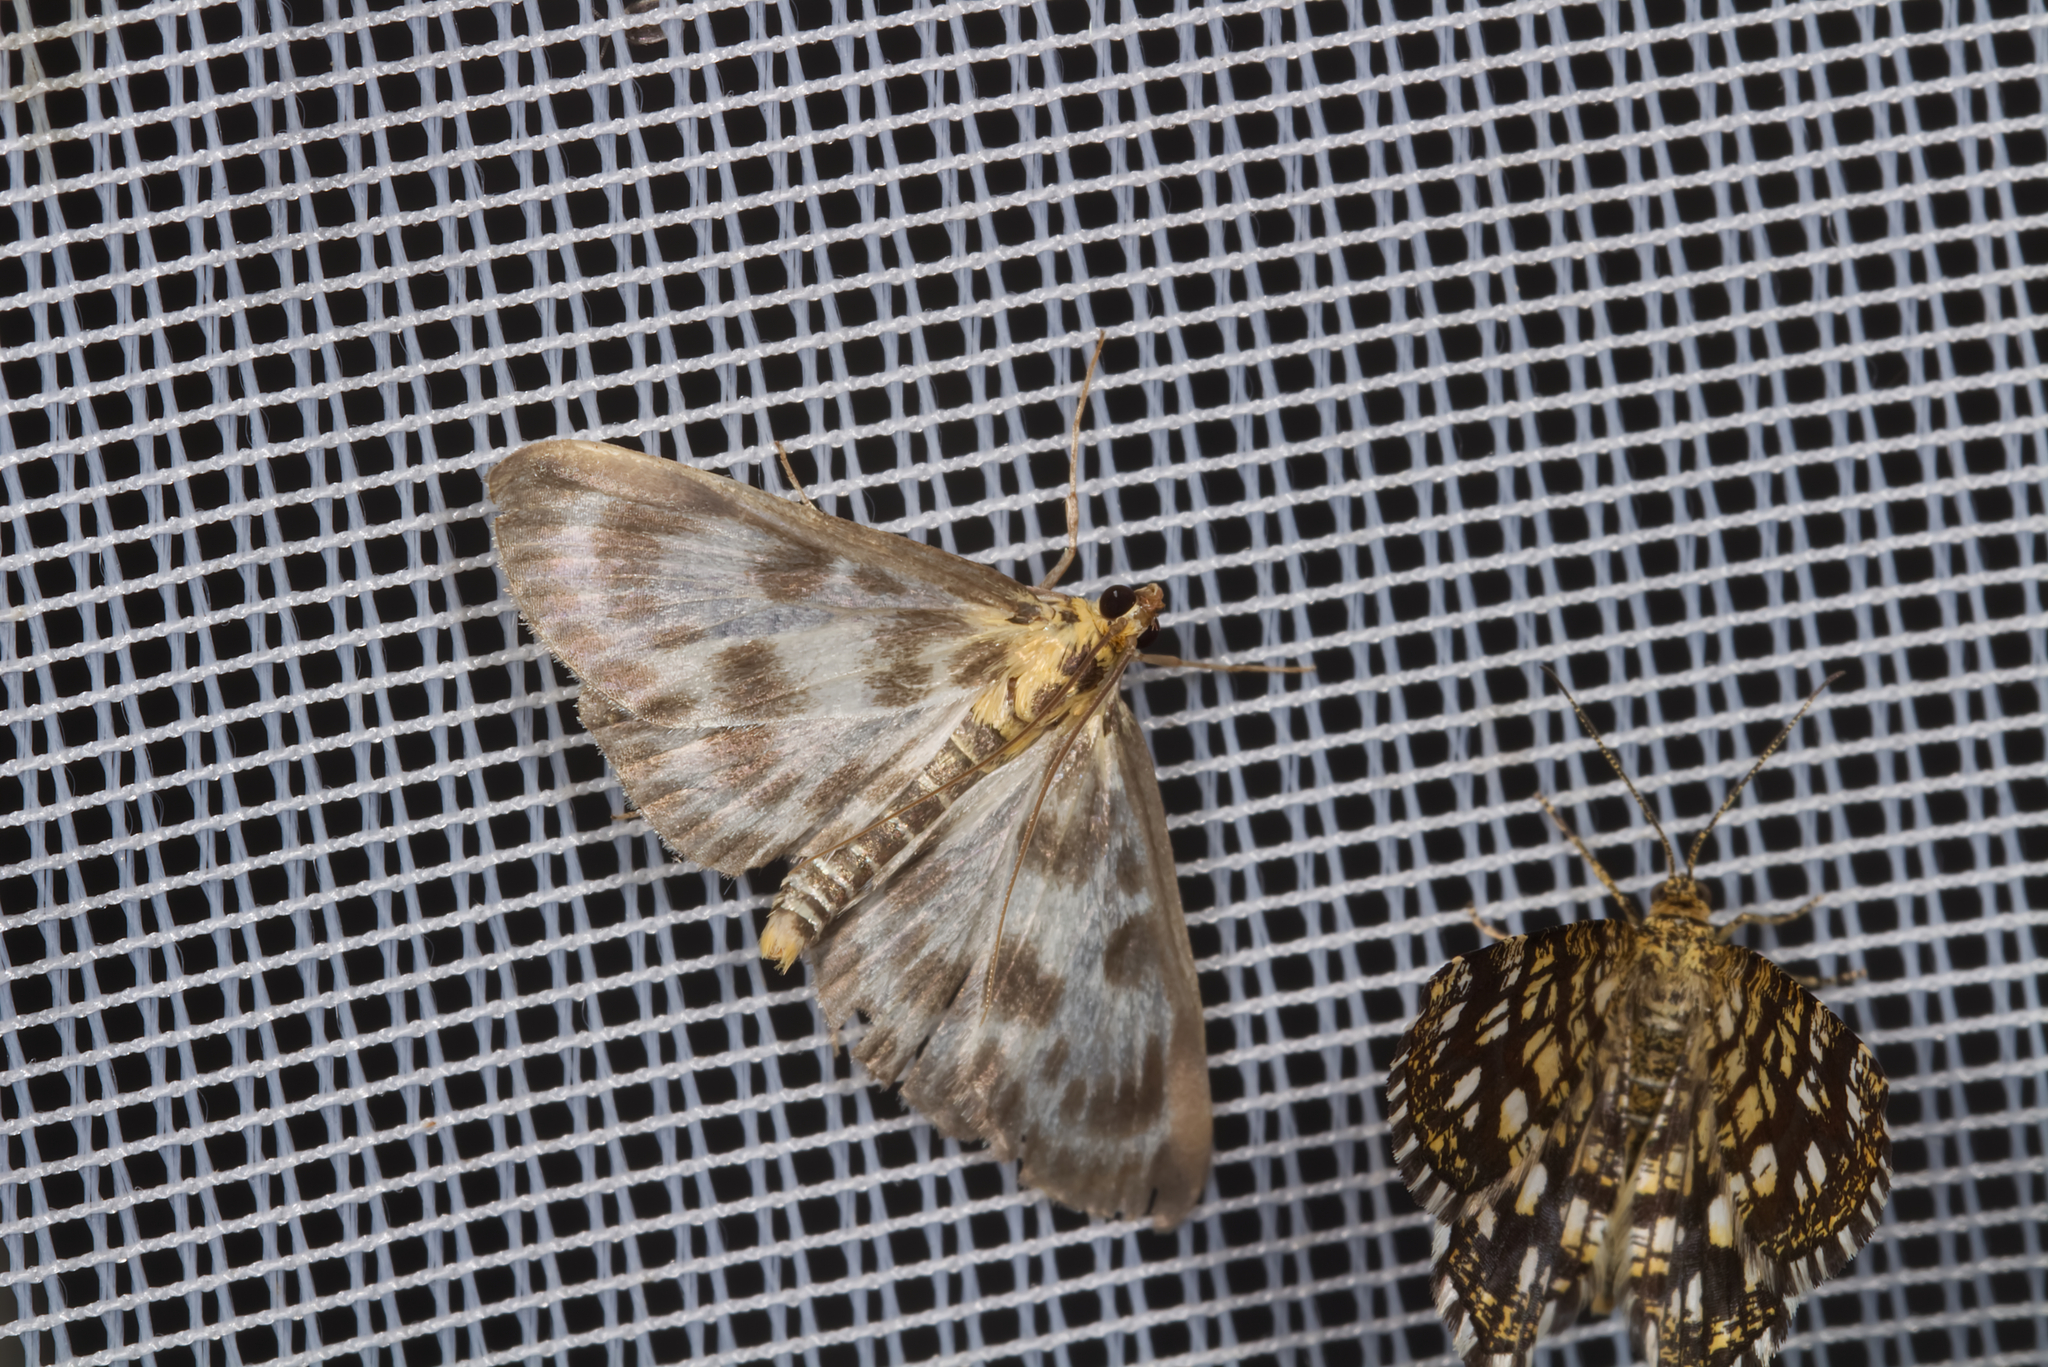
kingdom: Animalia
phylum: Arthropoda
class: Insecta
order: Lepidoptera
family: Crambidae
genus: Anania
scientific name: Anania hortulata
